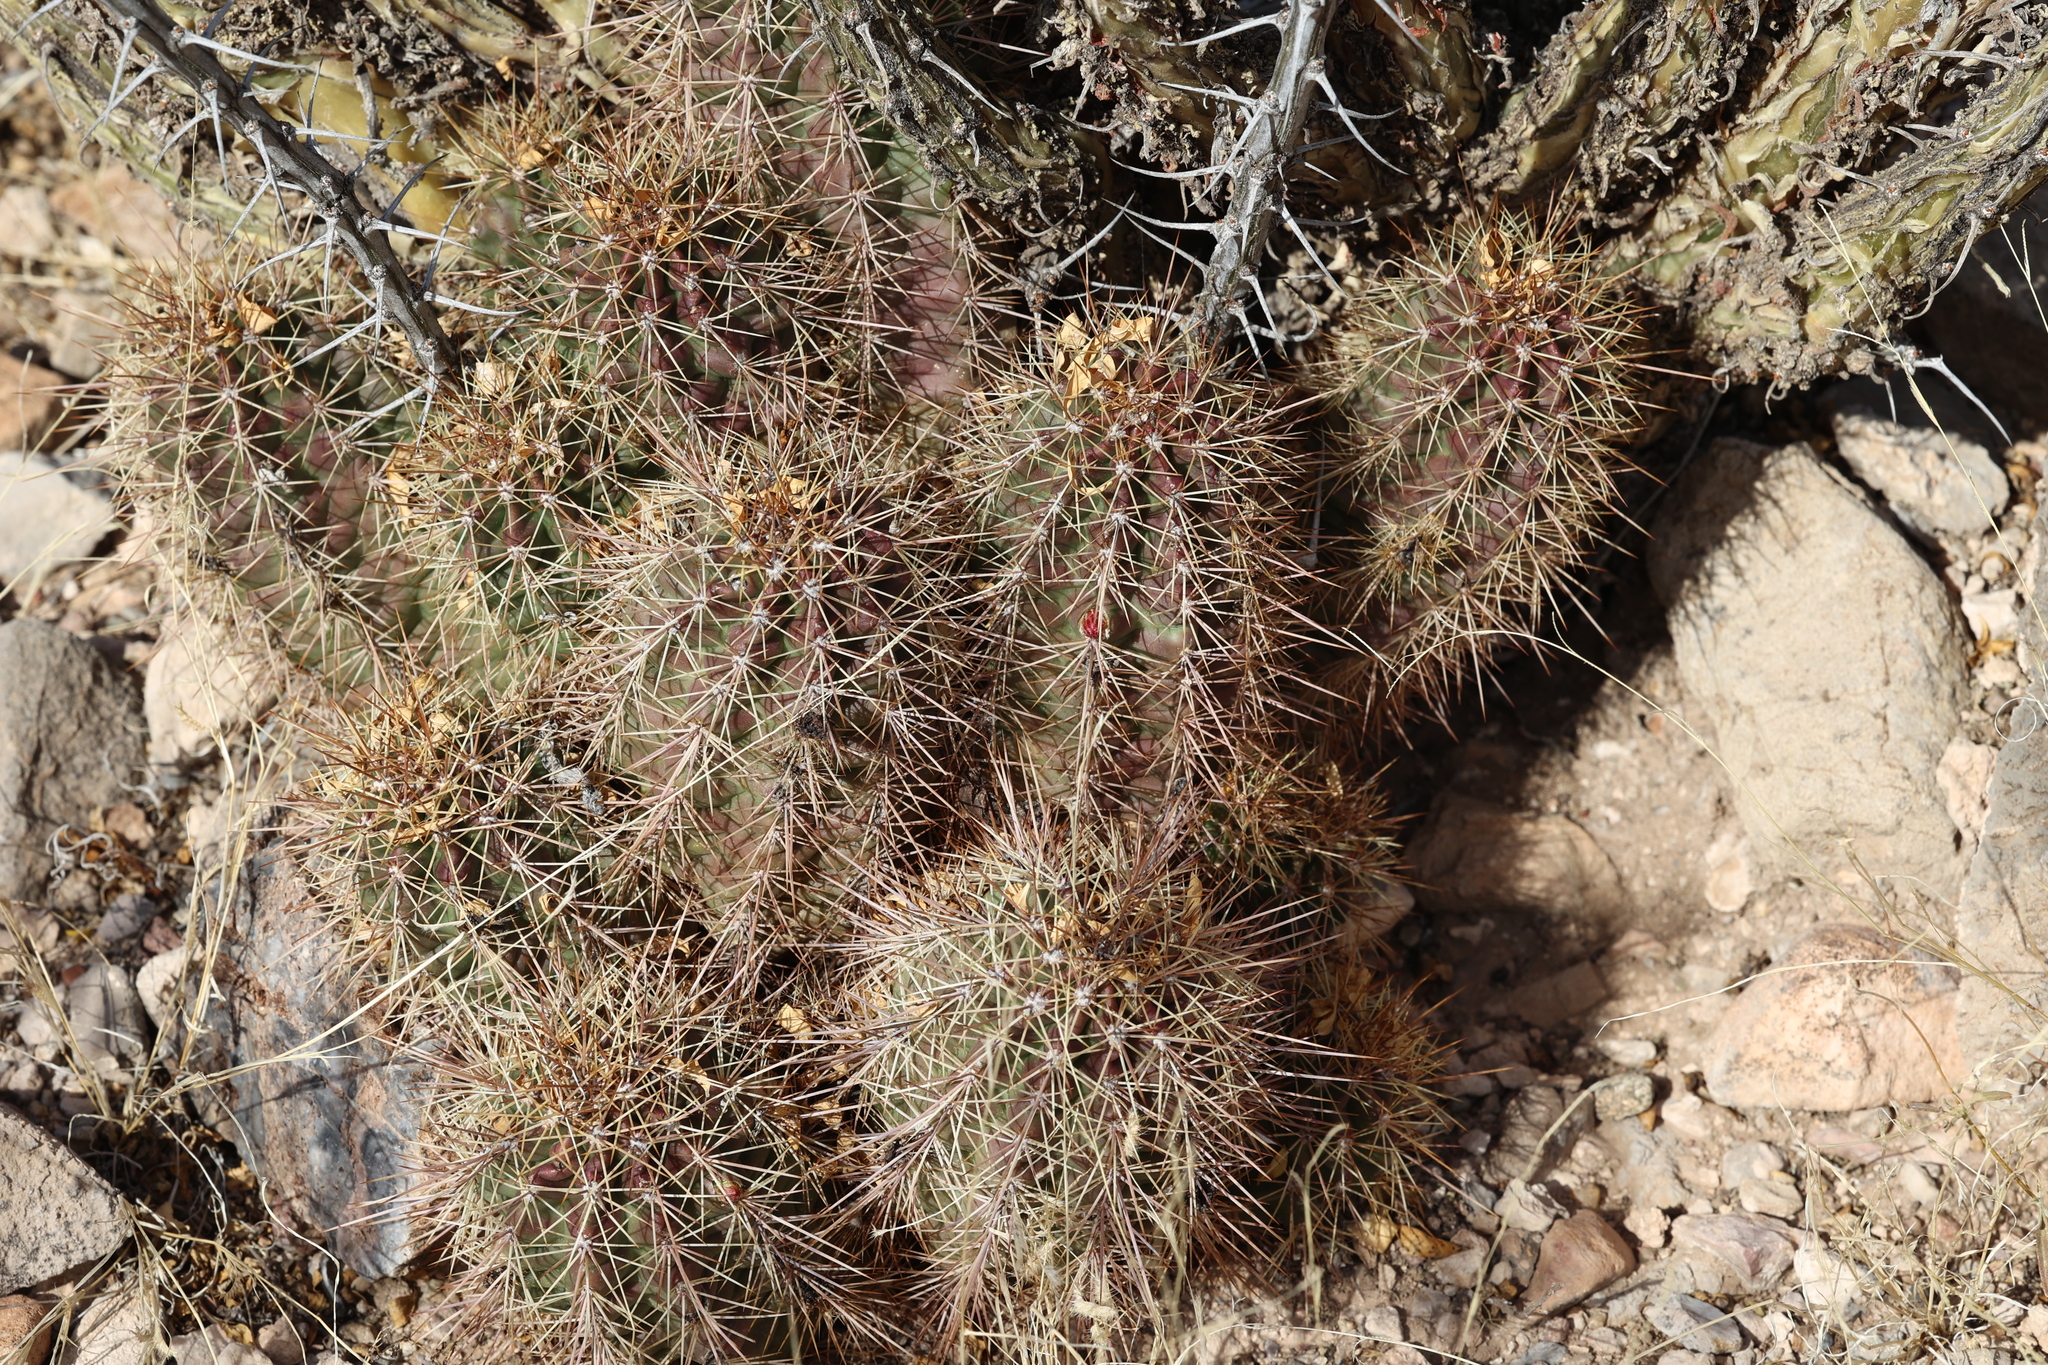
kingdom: Plantae
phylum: Tracheophyta
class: Magnoliopsida
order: Caryophyllales
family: Cactaceae
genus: Echinocereus
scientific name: Echinocereus coccineus
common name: Scarlet hedgehog cactus
